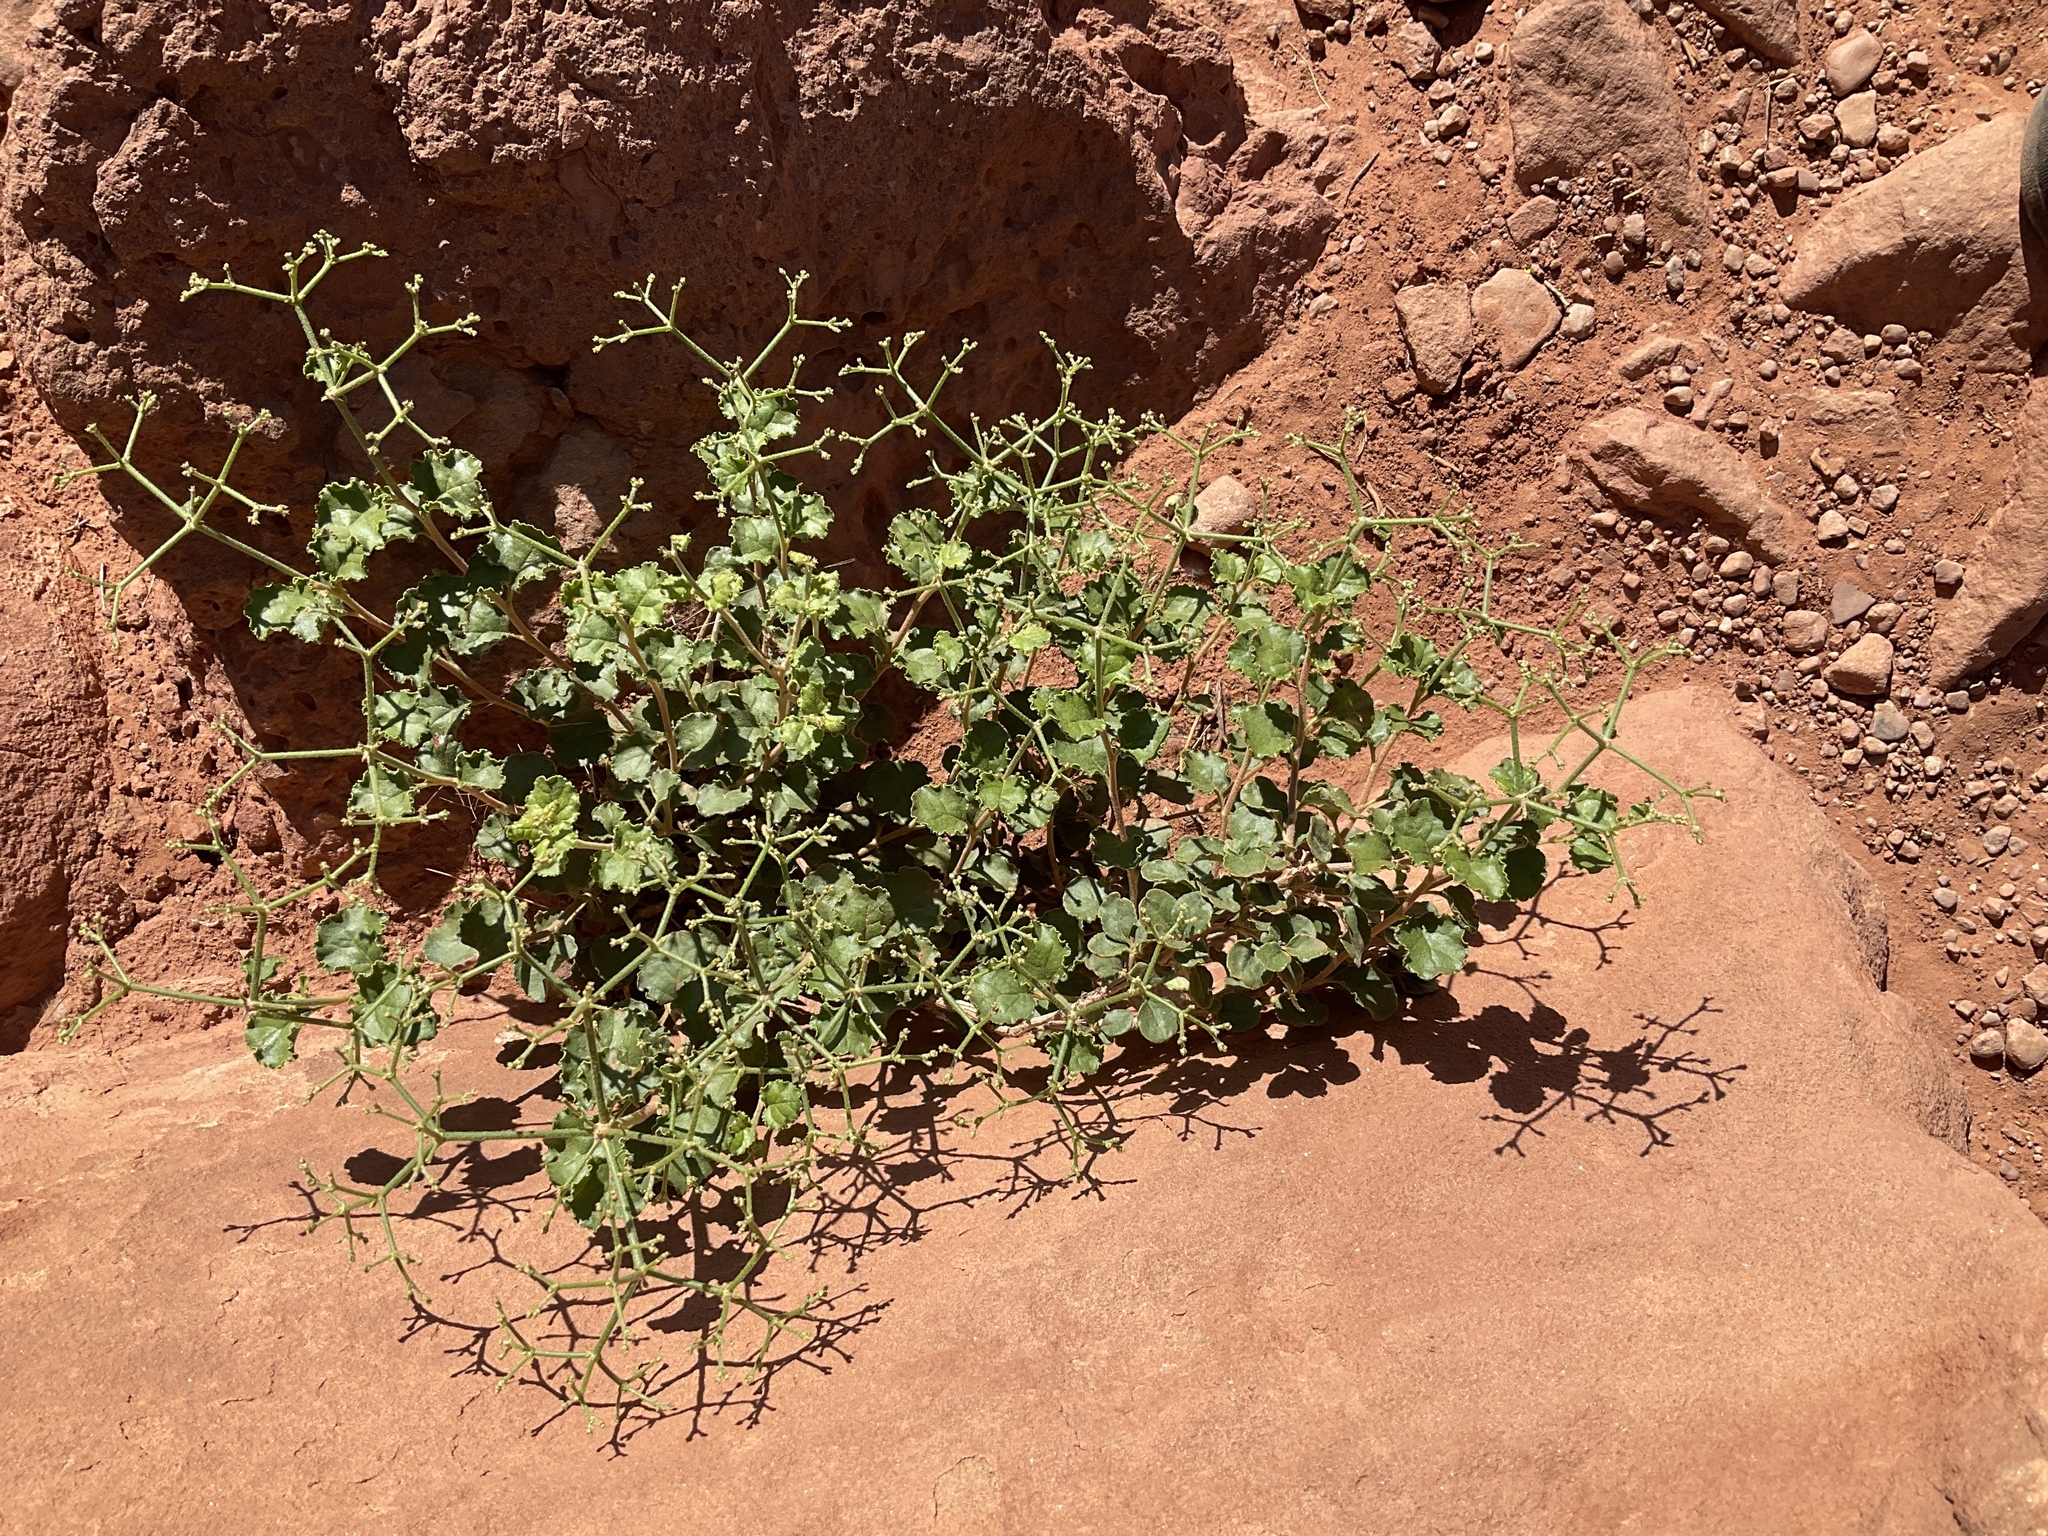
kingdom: Plantae
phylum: Tracheophyta
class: Magnoliopsida
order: Caryophyllales
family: Polygonaceae
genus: Eriogonum
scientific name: Eriogonum corymbosum
